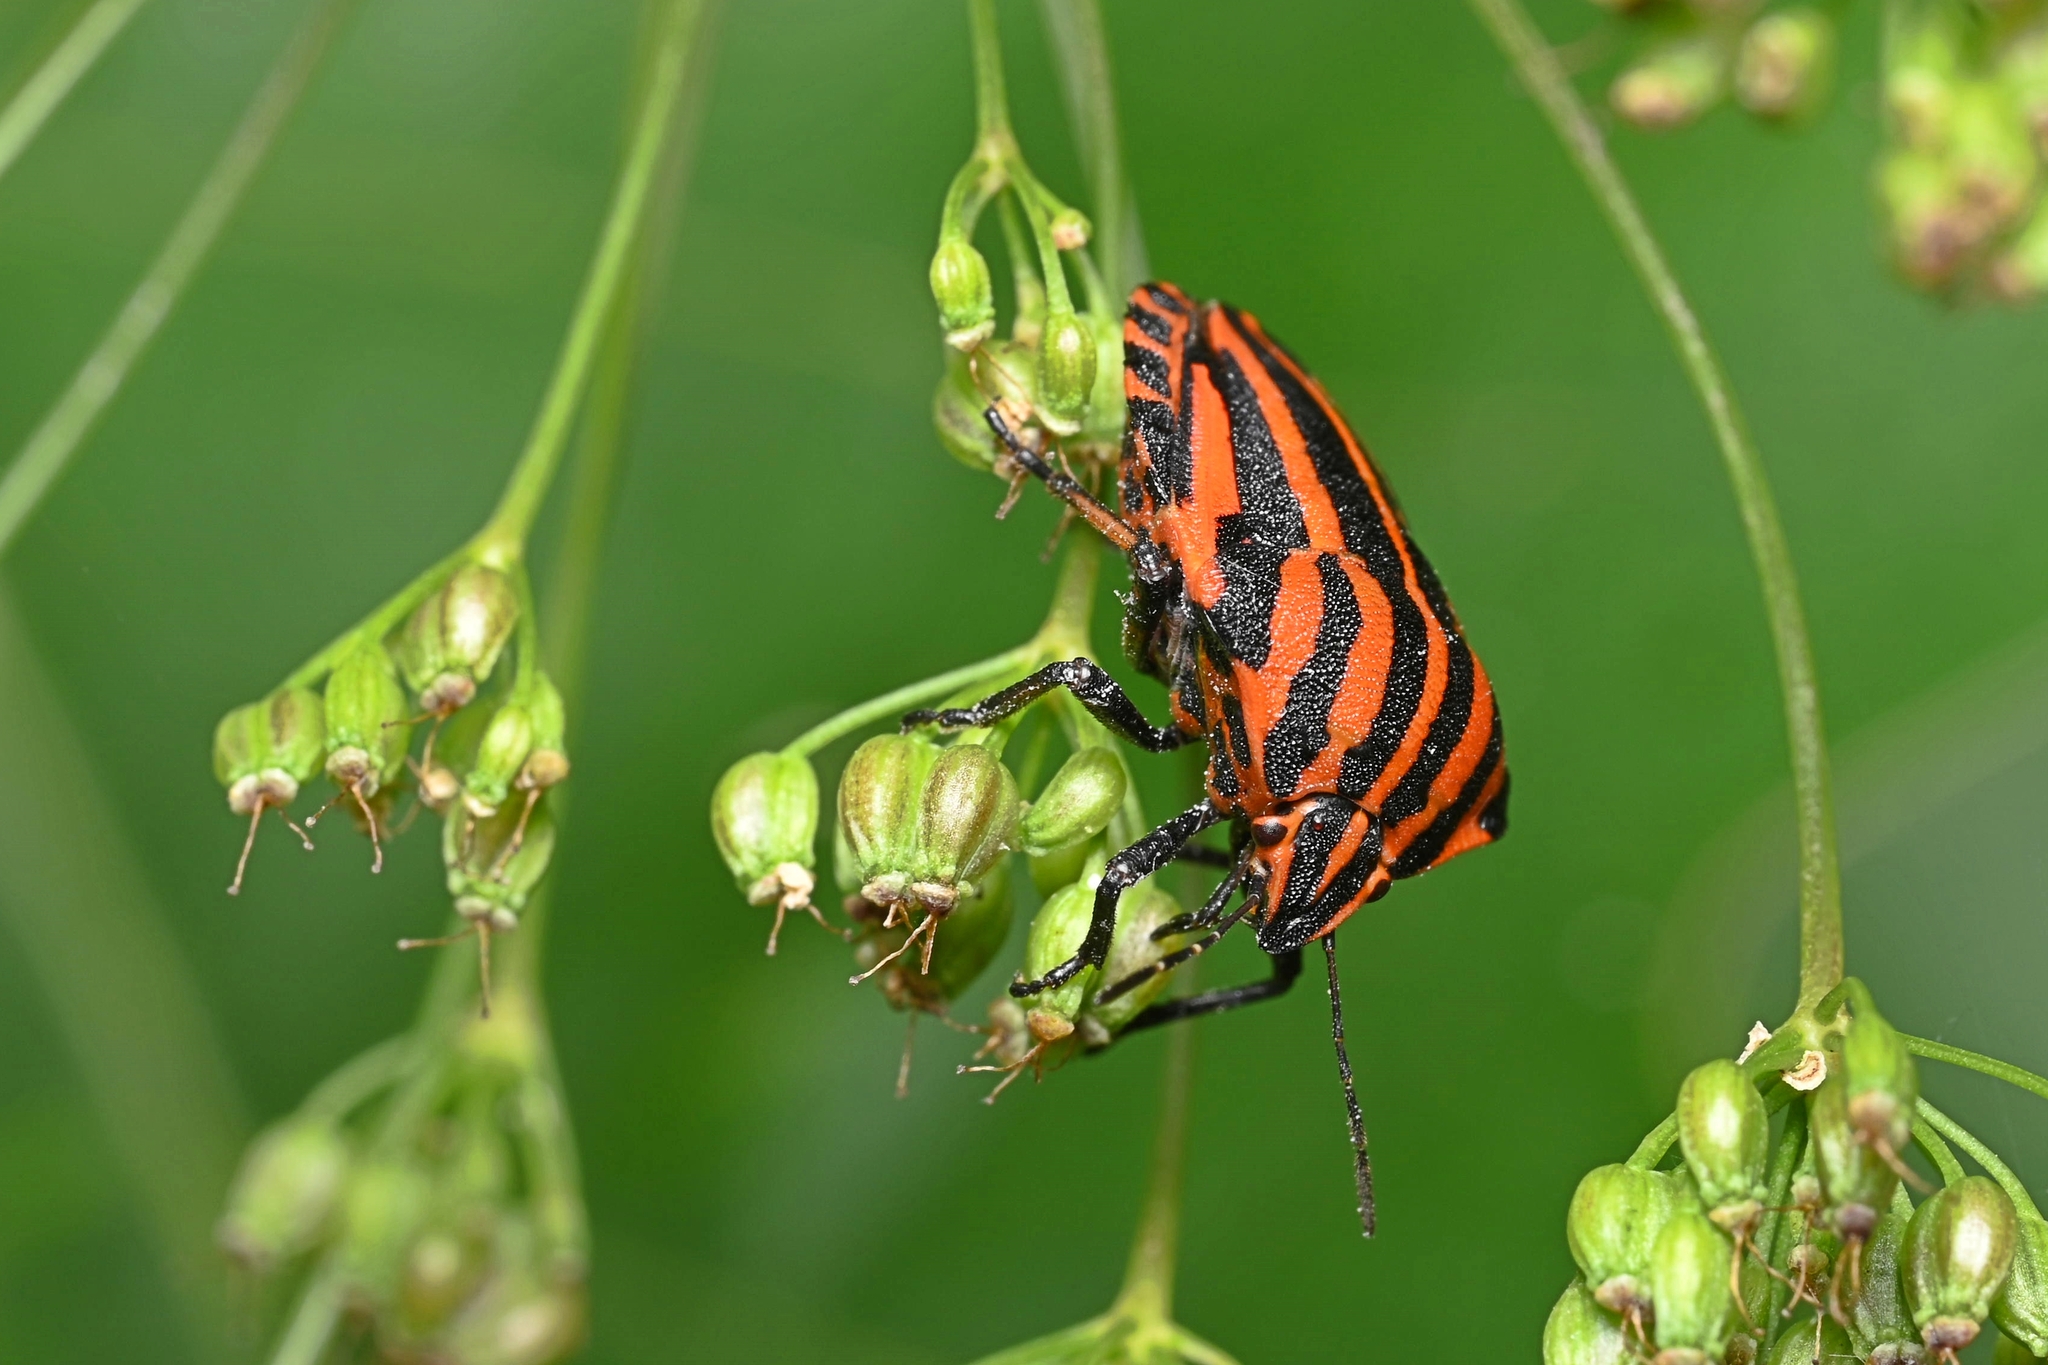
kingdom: Animalia
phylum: Arthropoda
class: Insecta
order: Hemiptera
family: Pentatomidae
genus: Graphosoma
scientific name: Graphosoma italicum
